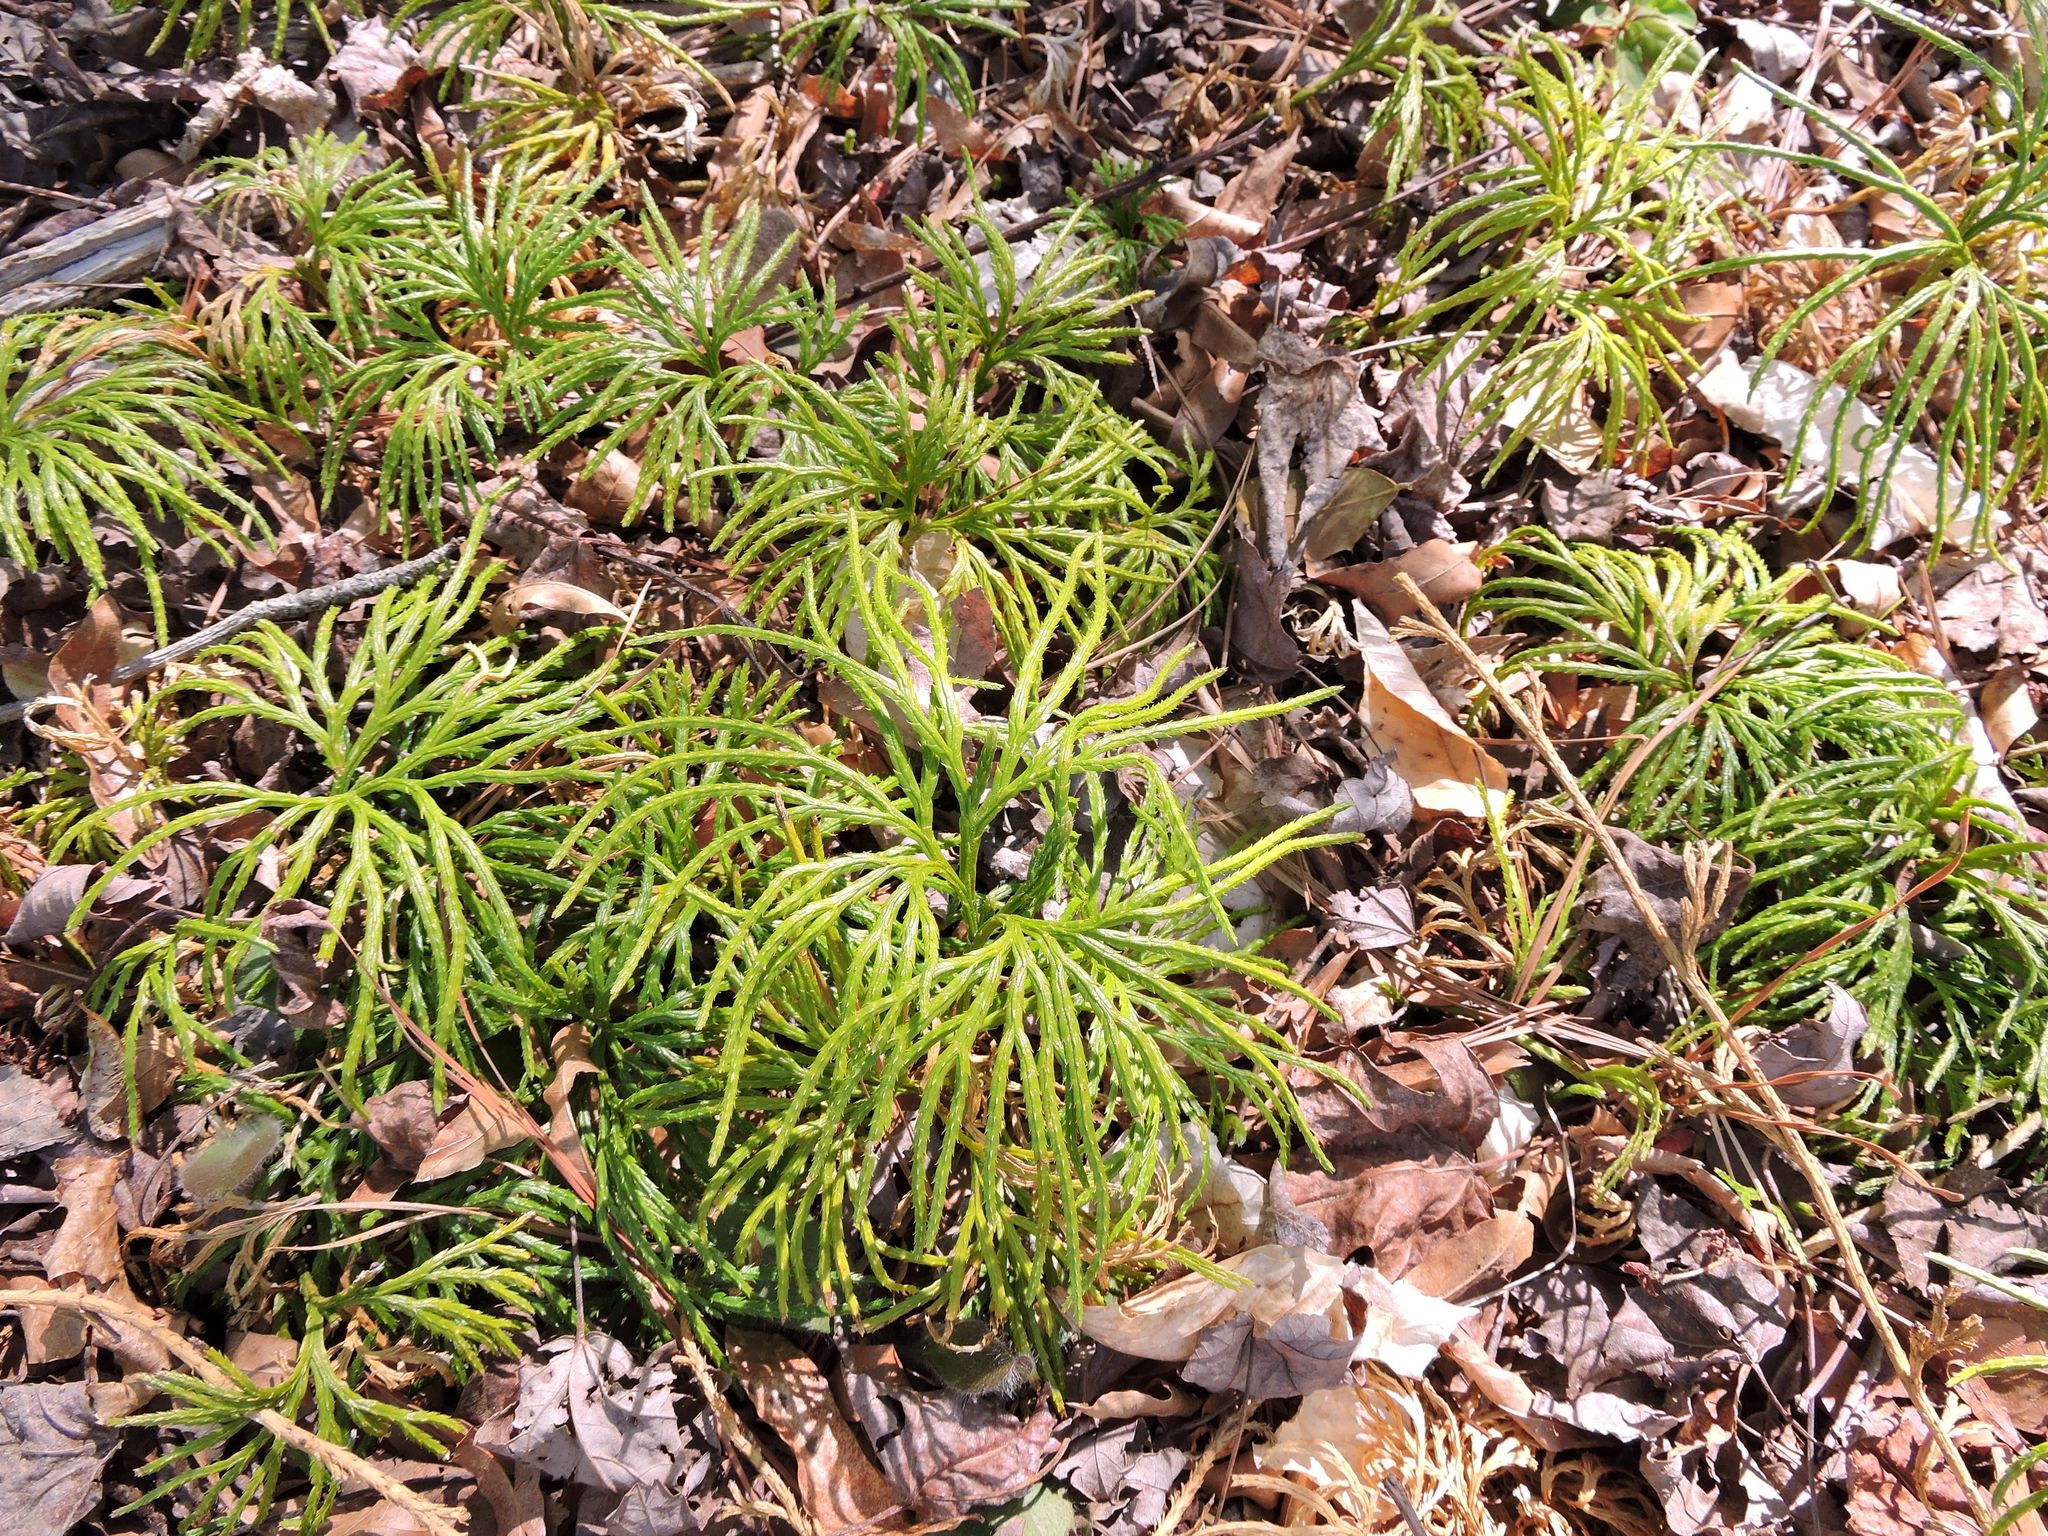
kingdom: Plantae
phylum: Tracheophyta
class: Lycopodiopsida
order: Lycopodiales
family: Lycopodiaceae
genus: Diphasiastrum
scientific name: Diphasiastrum digitatum
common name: Southern running-pine
